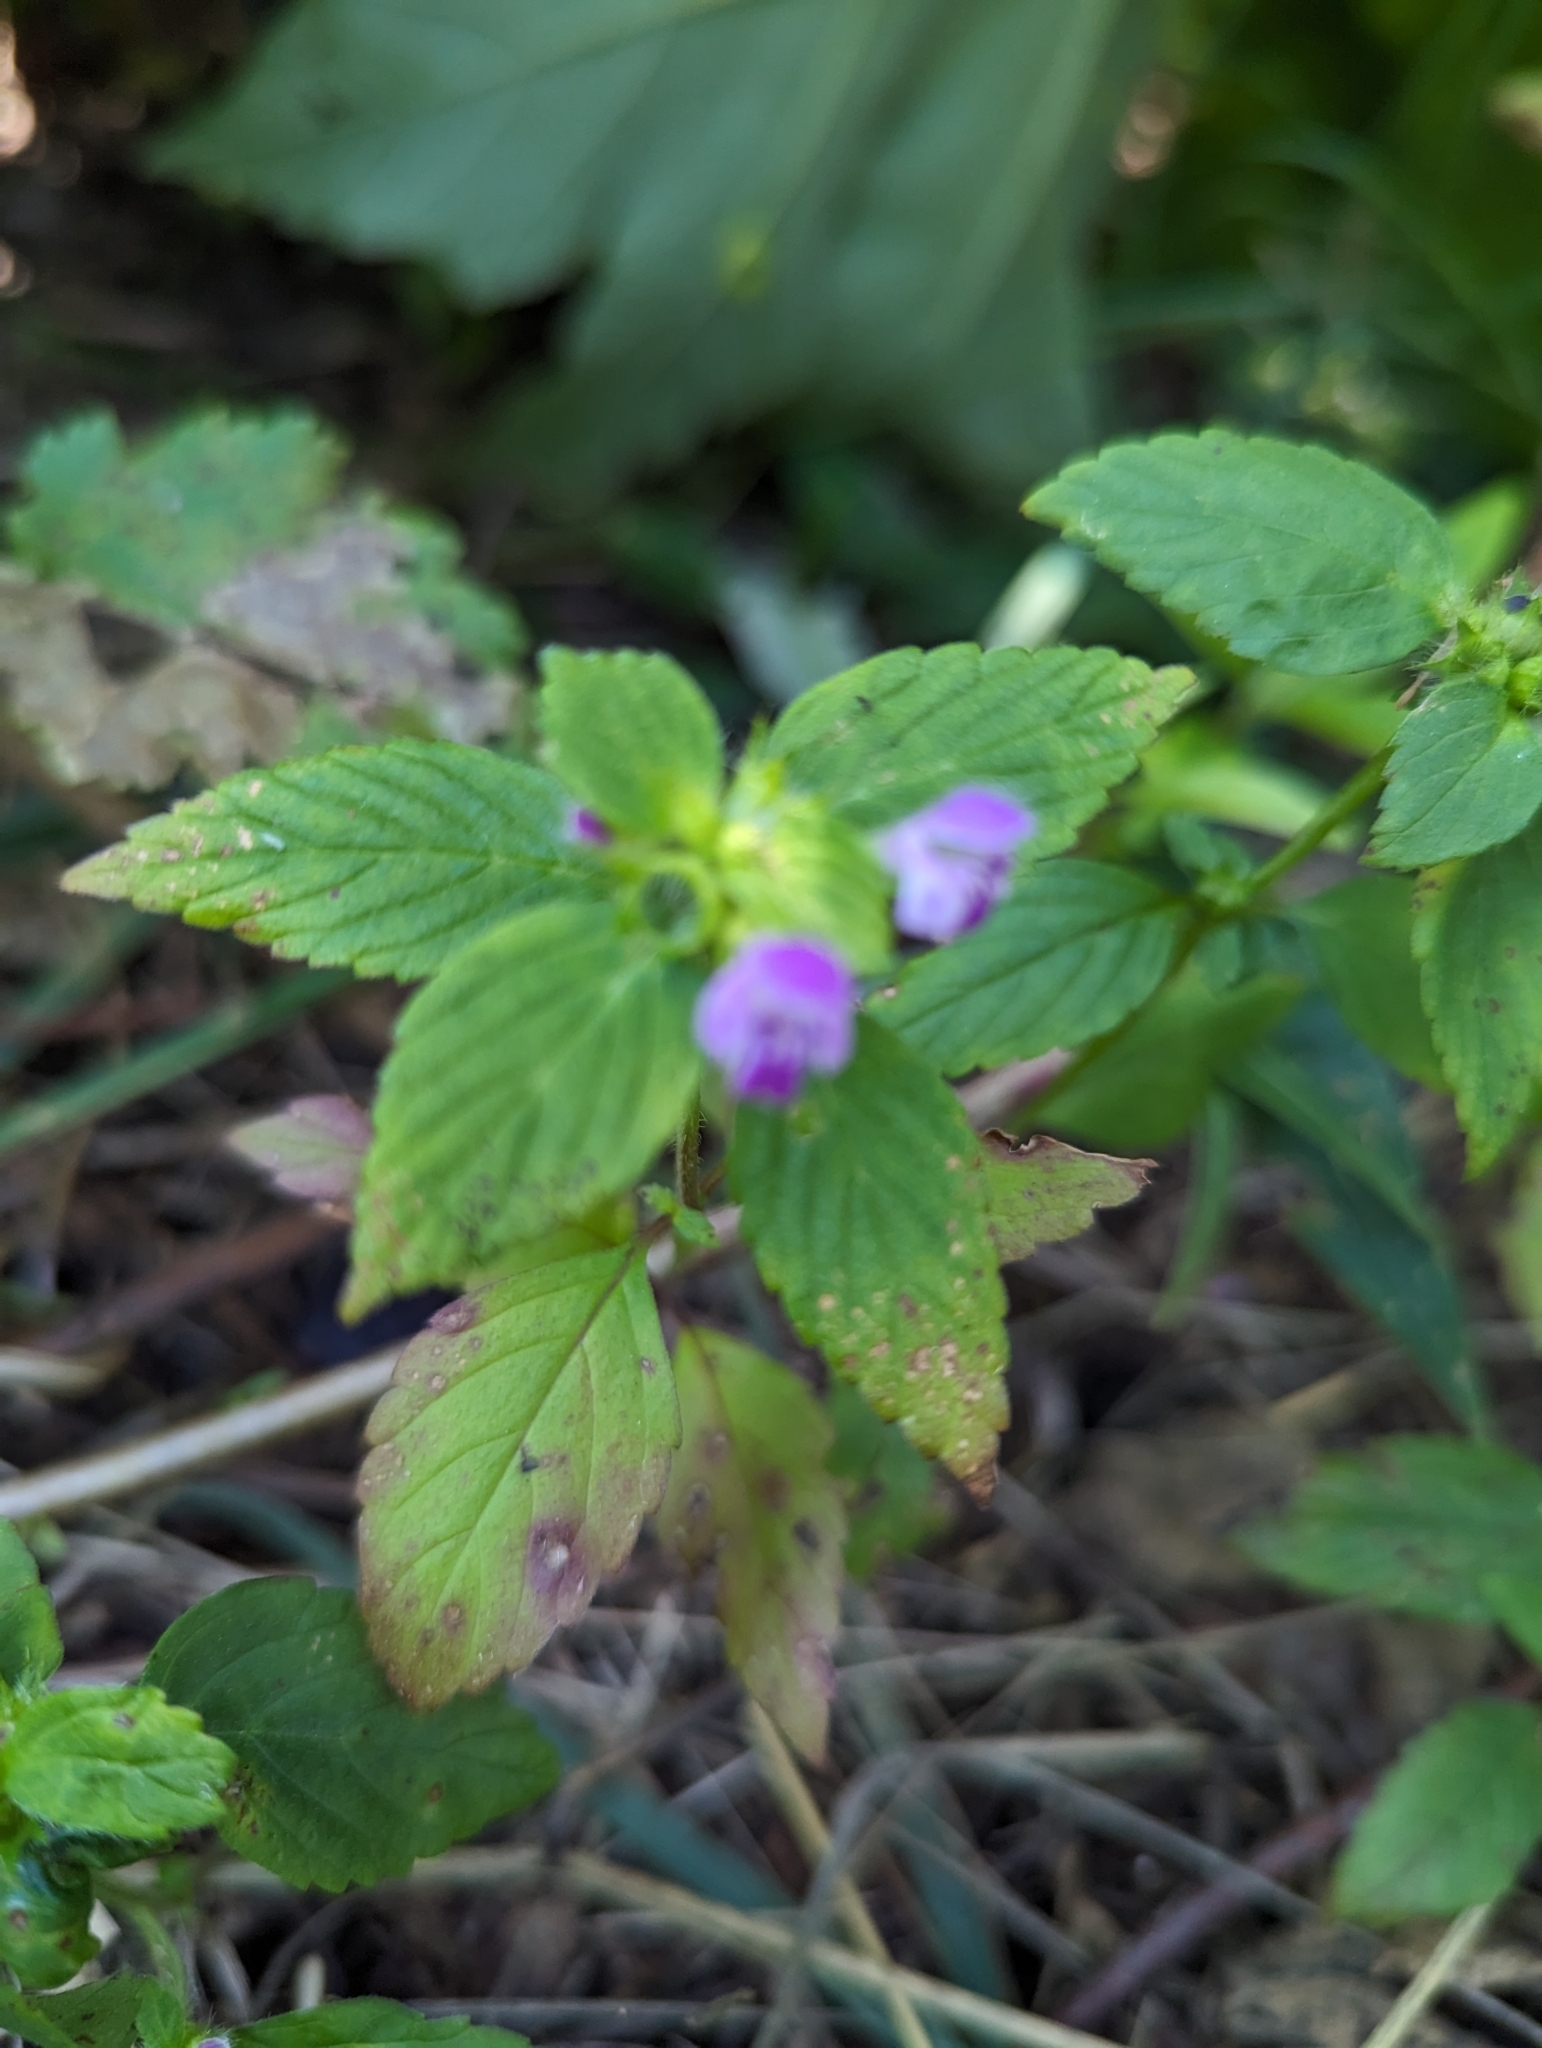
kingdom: Plantae
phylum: Tracheophyta
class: Magnoliopsida
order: Lamiales
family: Lamiaceae
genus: Galeopsis
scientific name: Galeopsis bifida
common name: Bifid hemp-nettle
